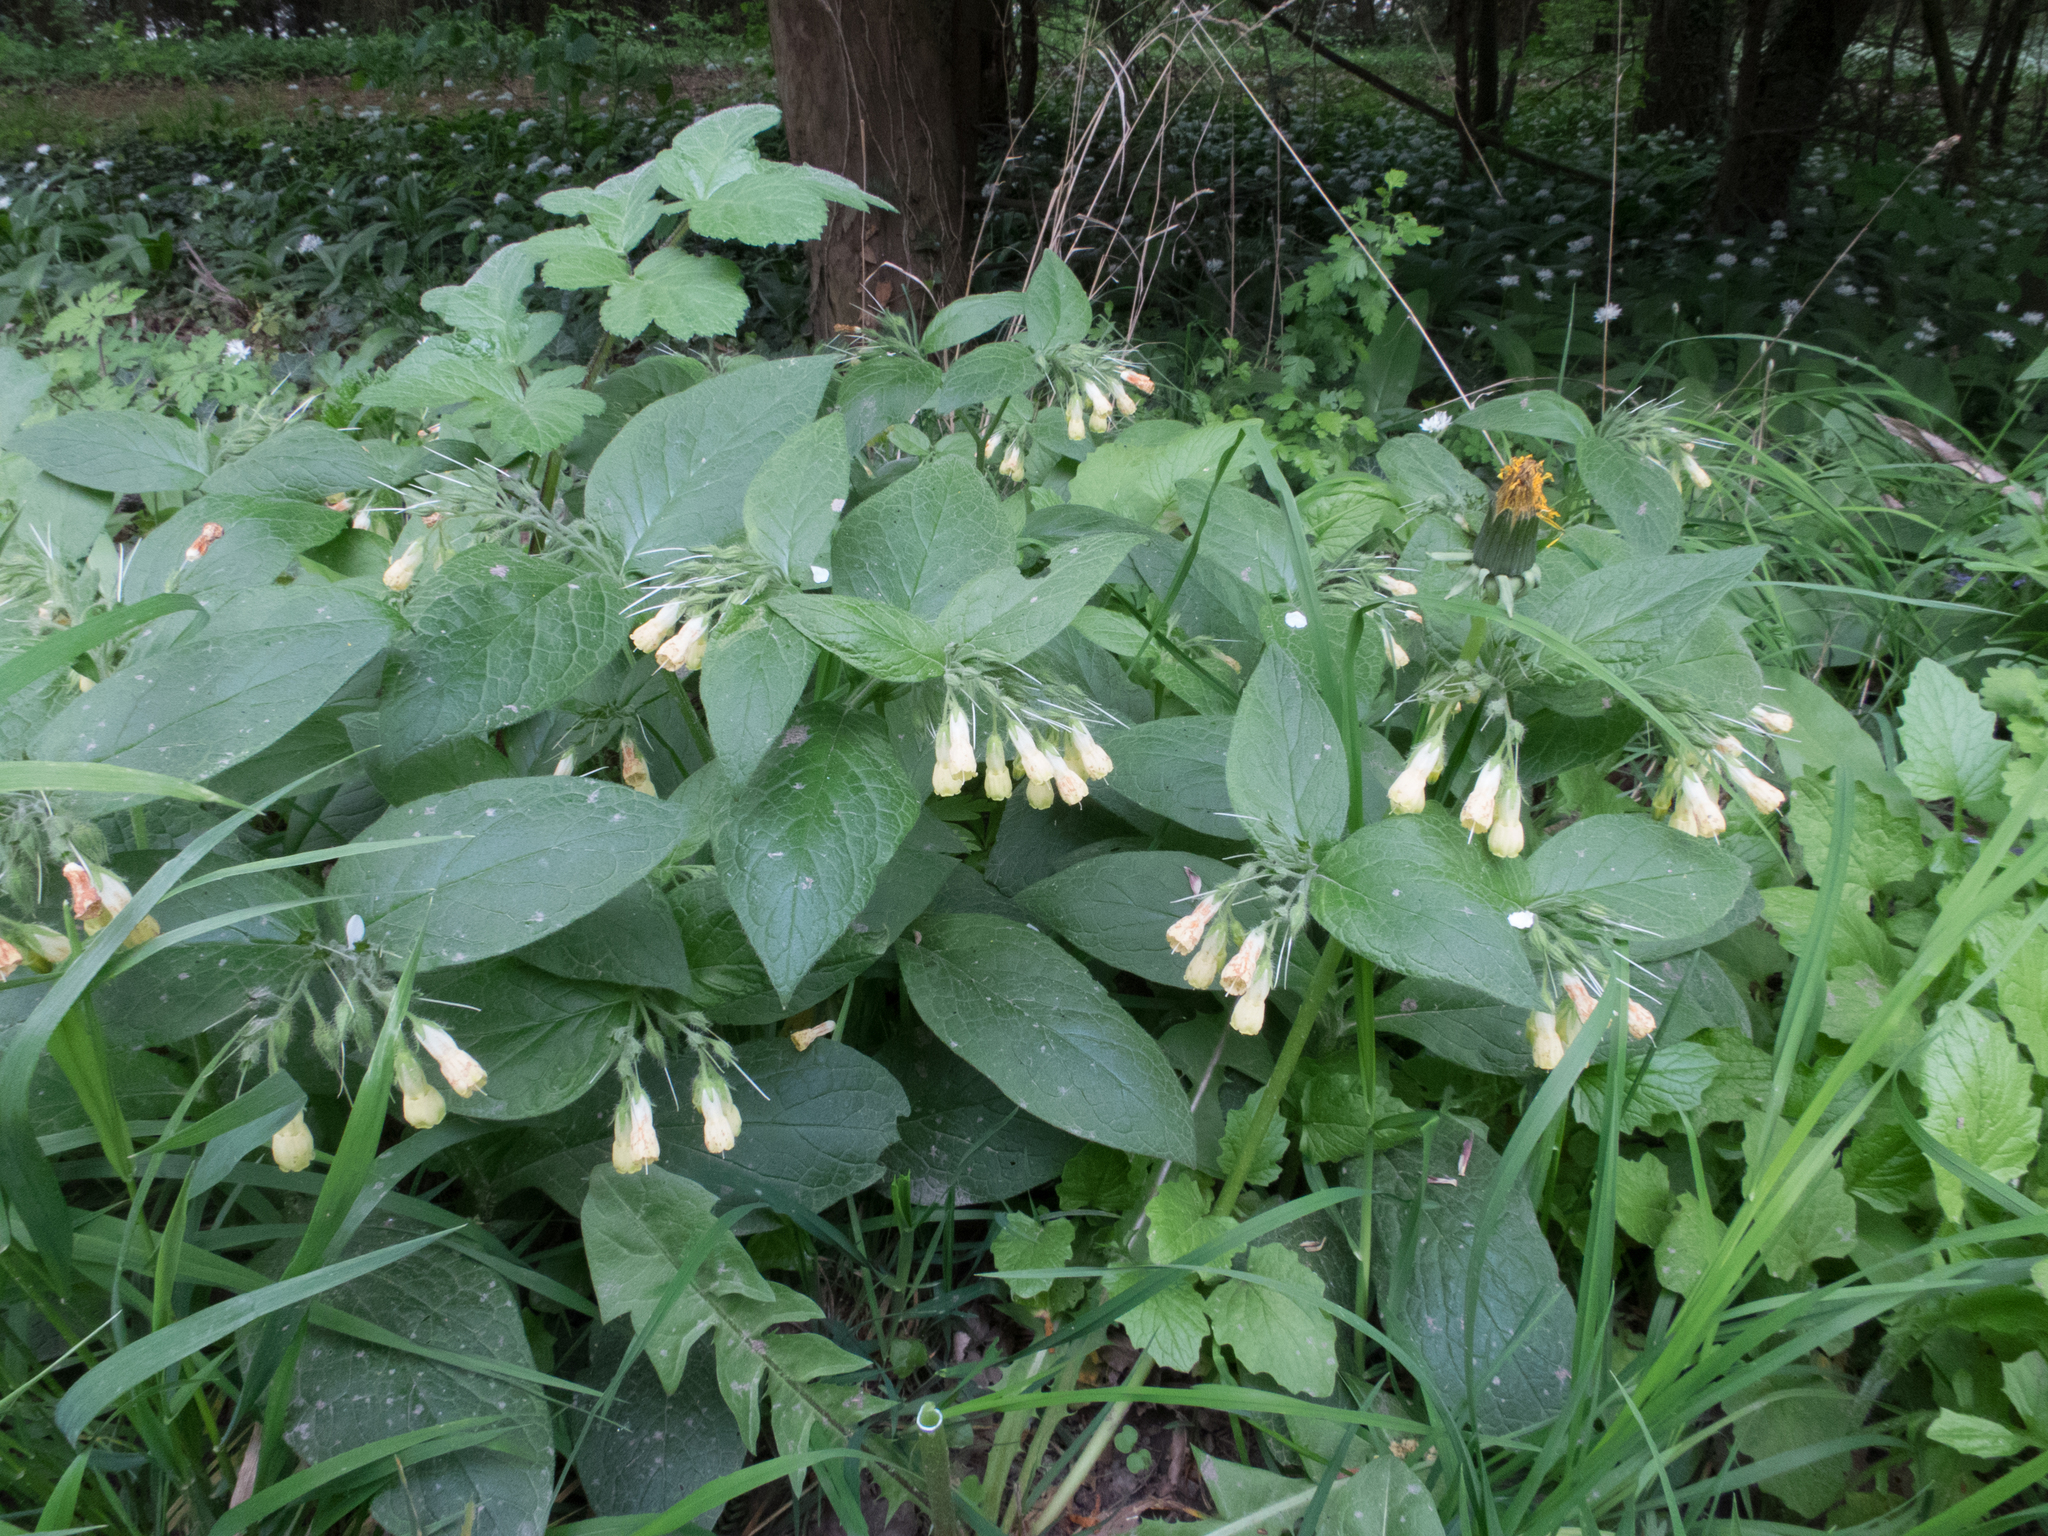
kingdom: Plantae
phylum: Tracheophyta
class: Magnoliopsida
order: Boraginales
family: Boraginaceae
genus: Symphytum
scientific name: Symphytum tuberosum
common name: Tuberous comfrey
